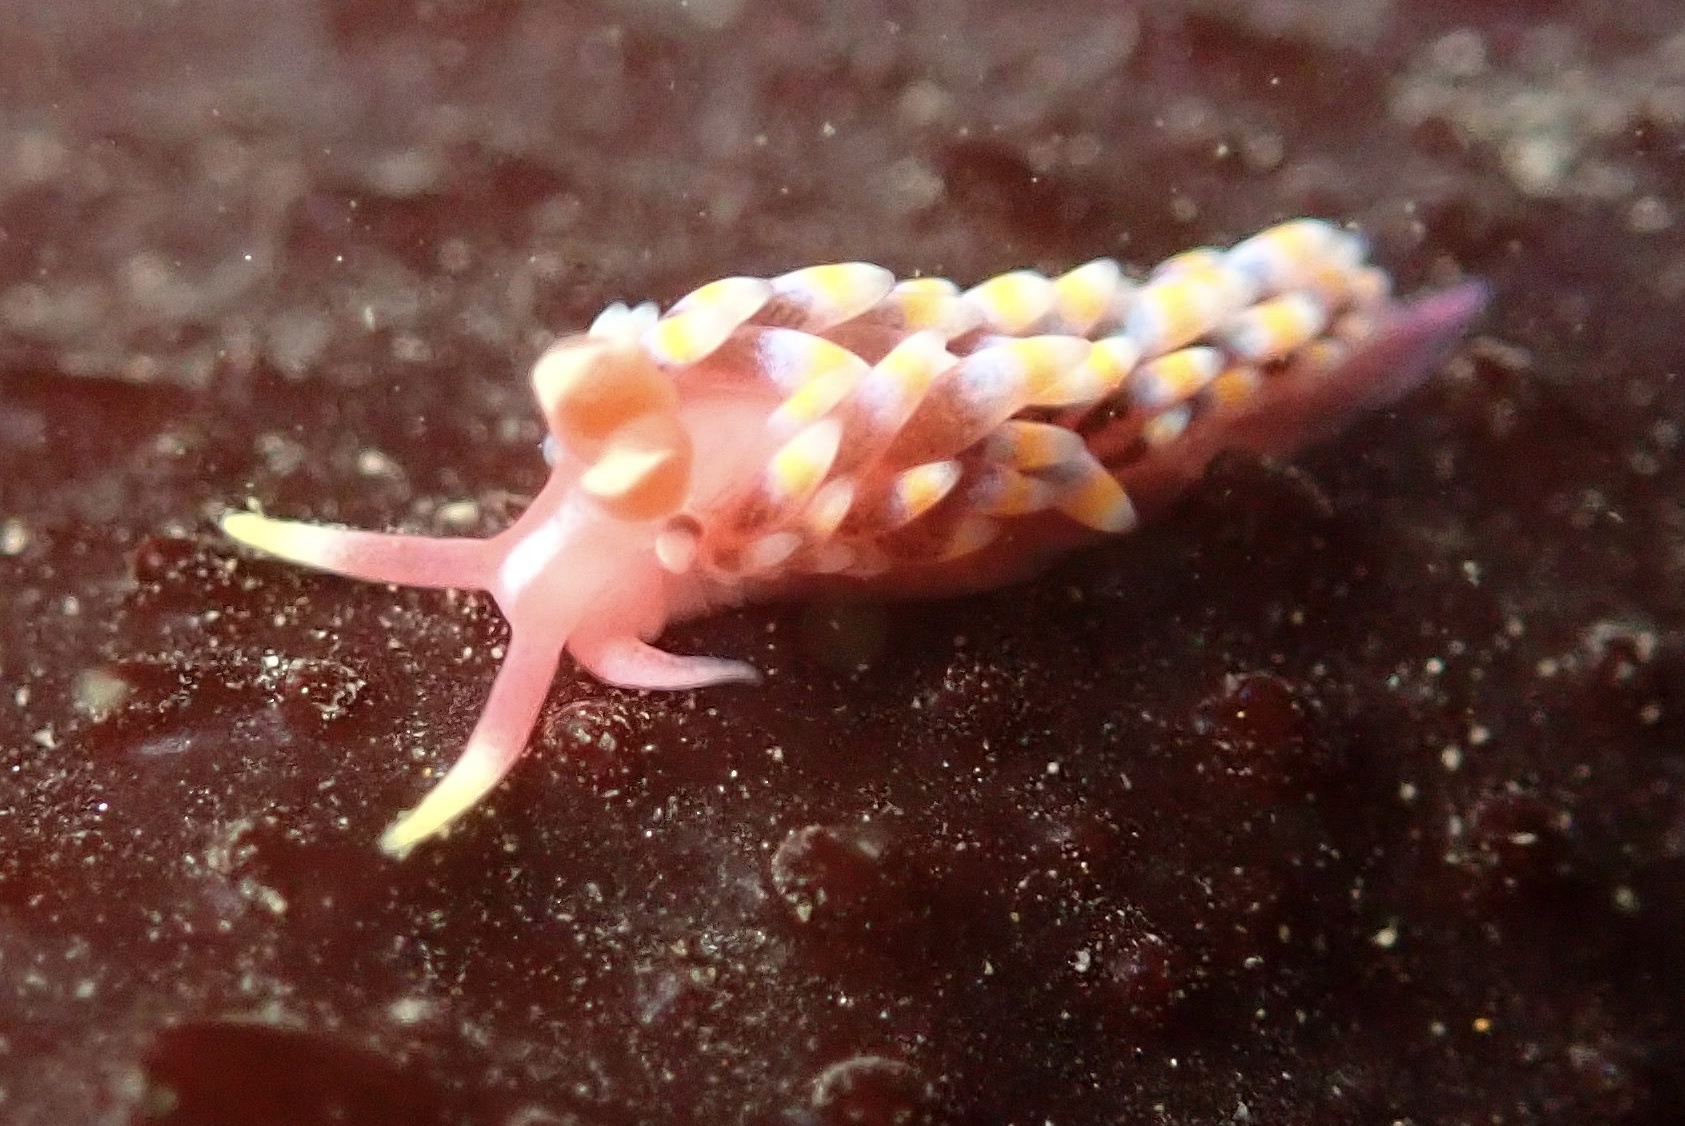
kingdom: Animalia
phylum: Mollusca
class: Gastropoda
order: Nudibranchia
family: Babakinidae
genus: Babakina
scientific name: Babakina festiva
